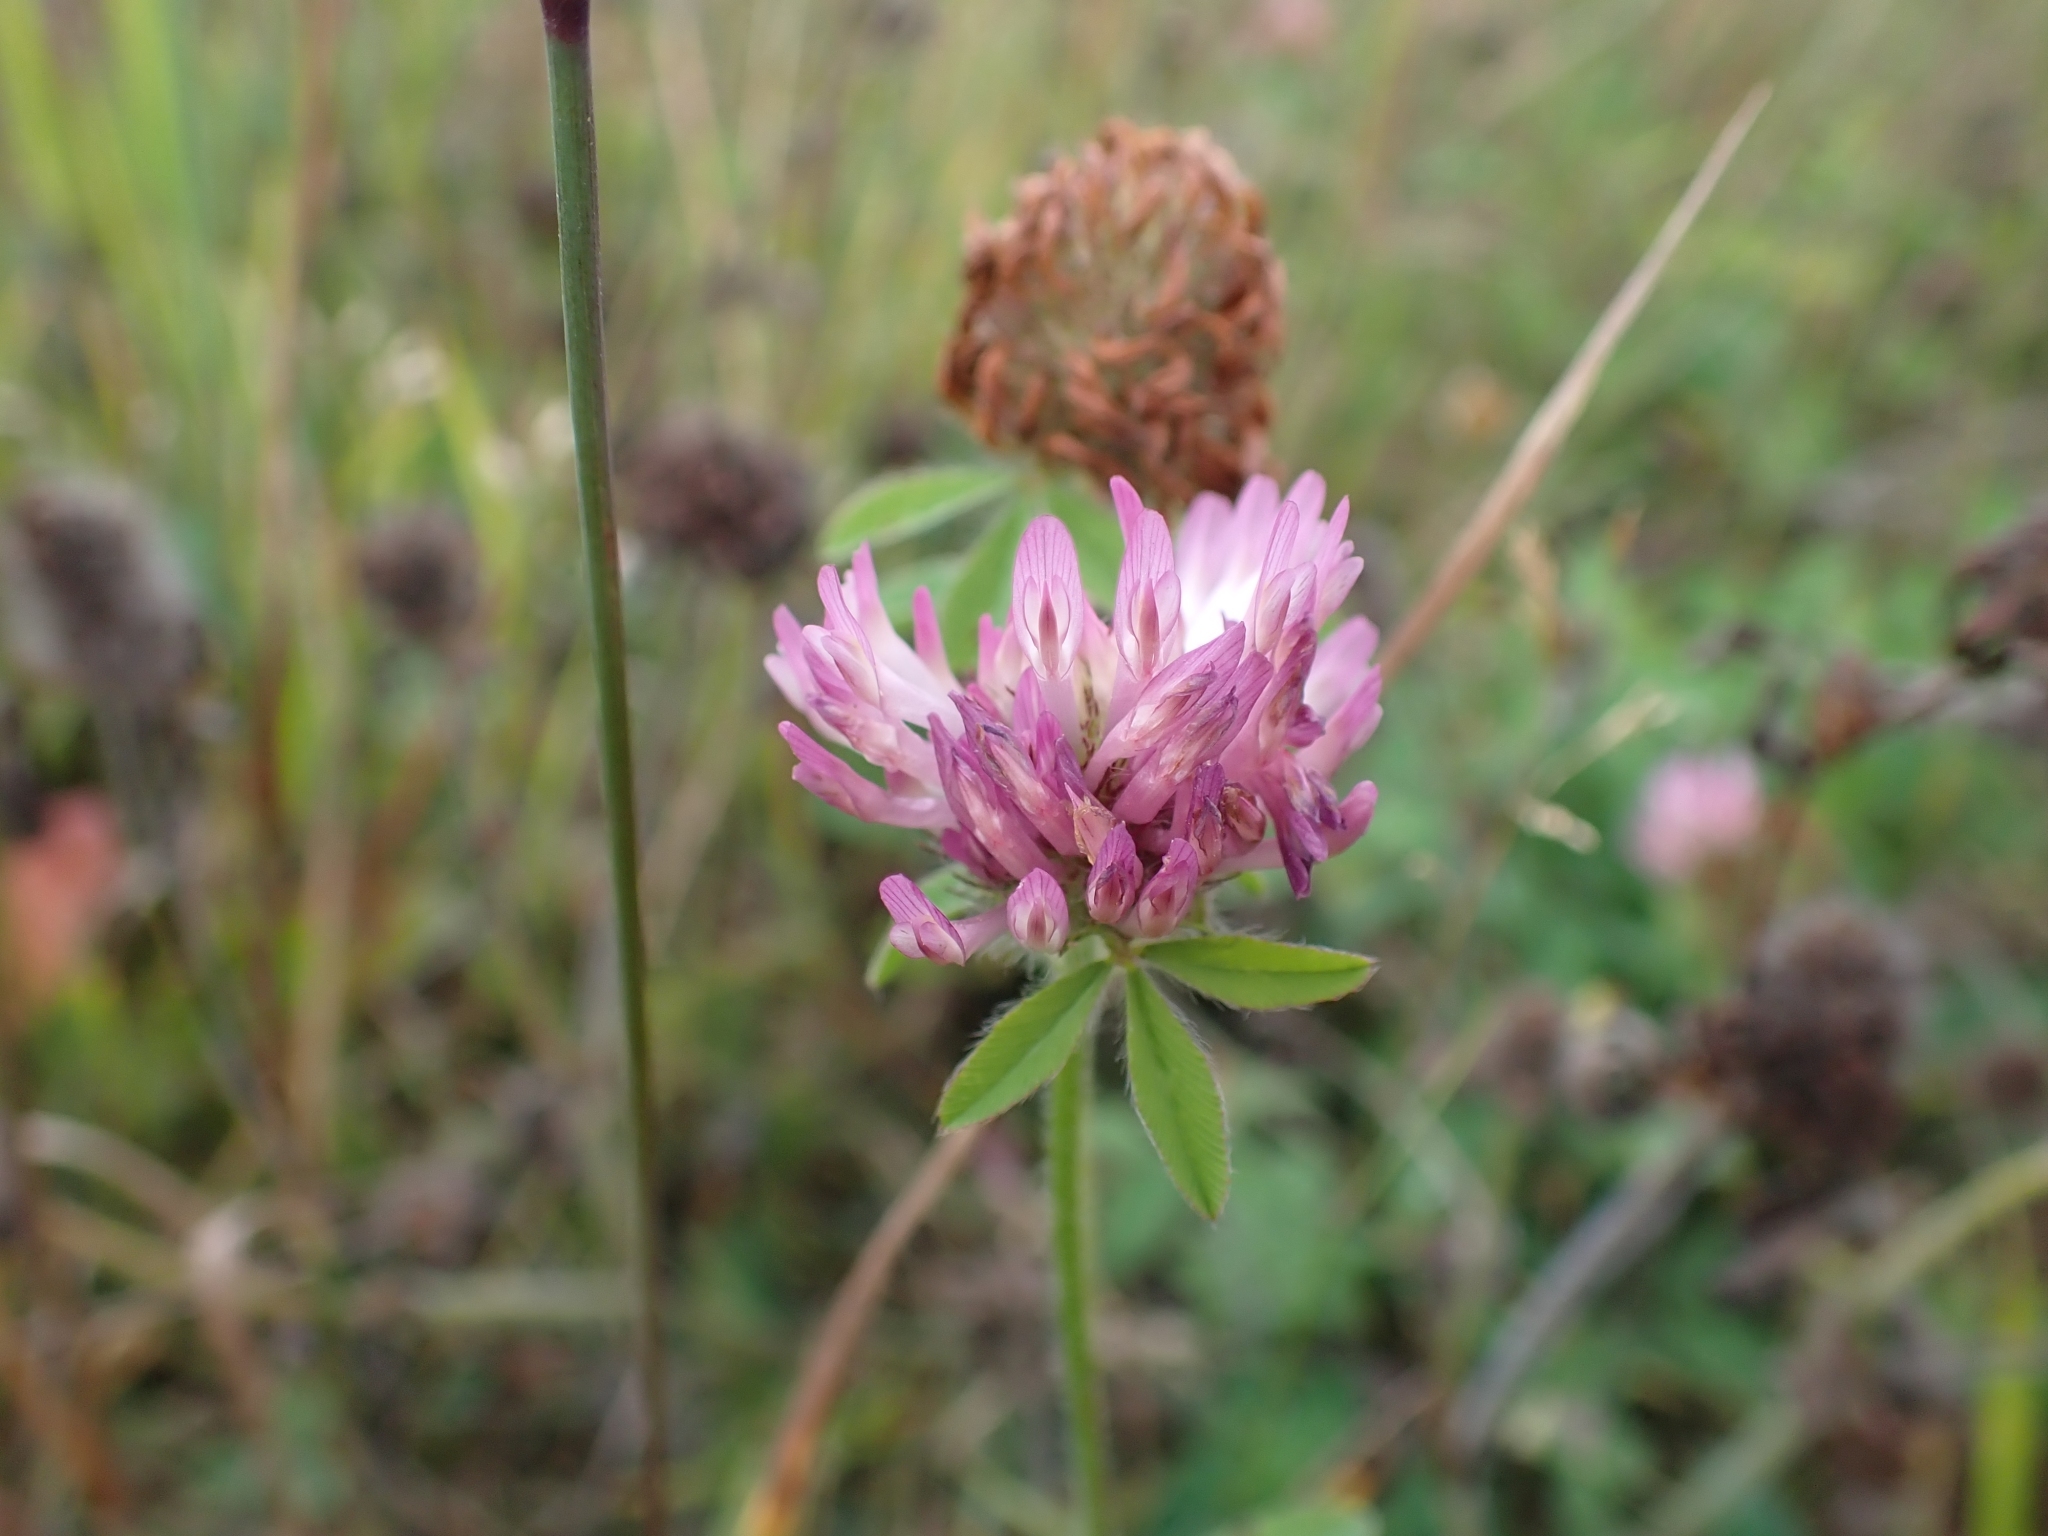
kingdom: Plantae
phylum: Tracheophyta
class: Magnoliopsida
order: Fabales
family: Fabaceae
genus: Trifolium
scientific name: Trifolium pratense
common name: Red clover
